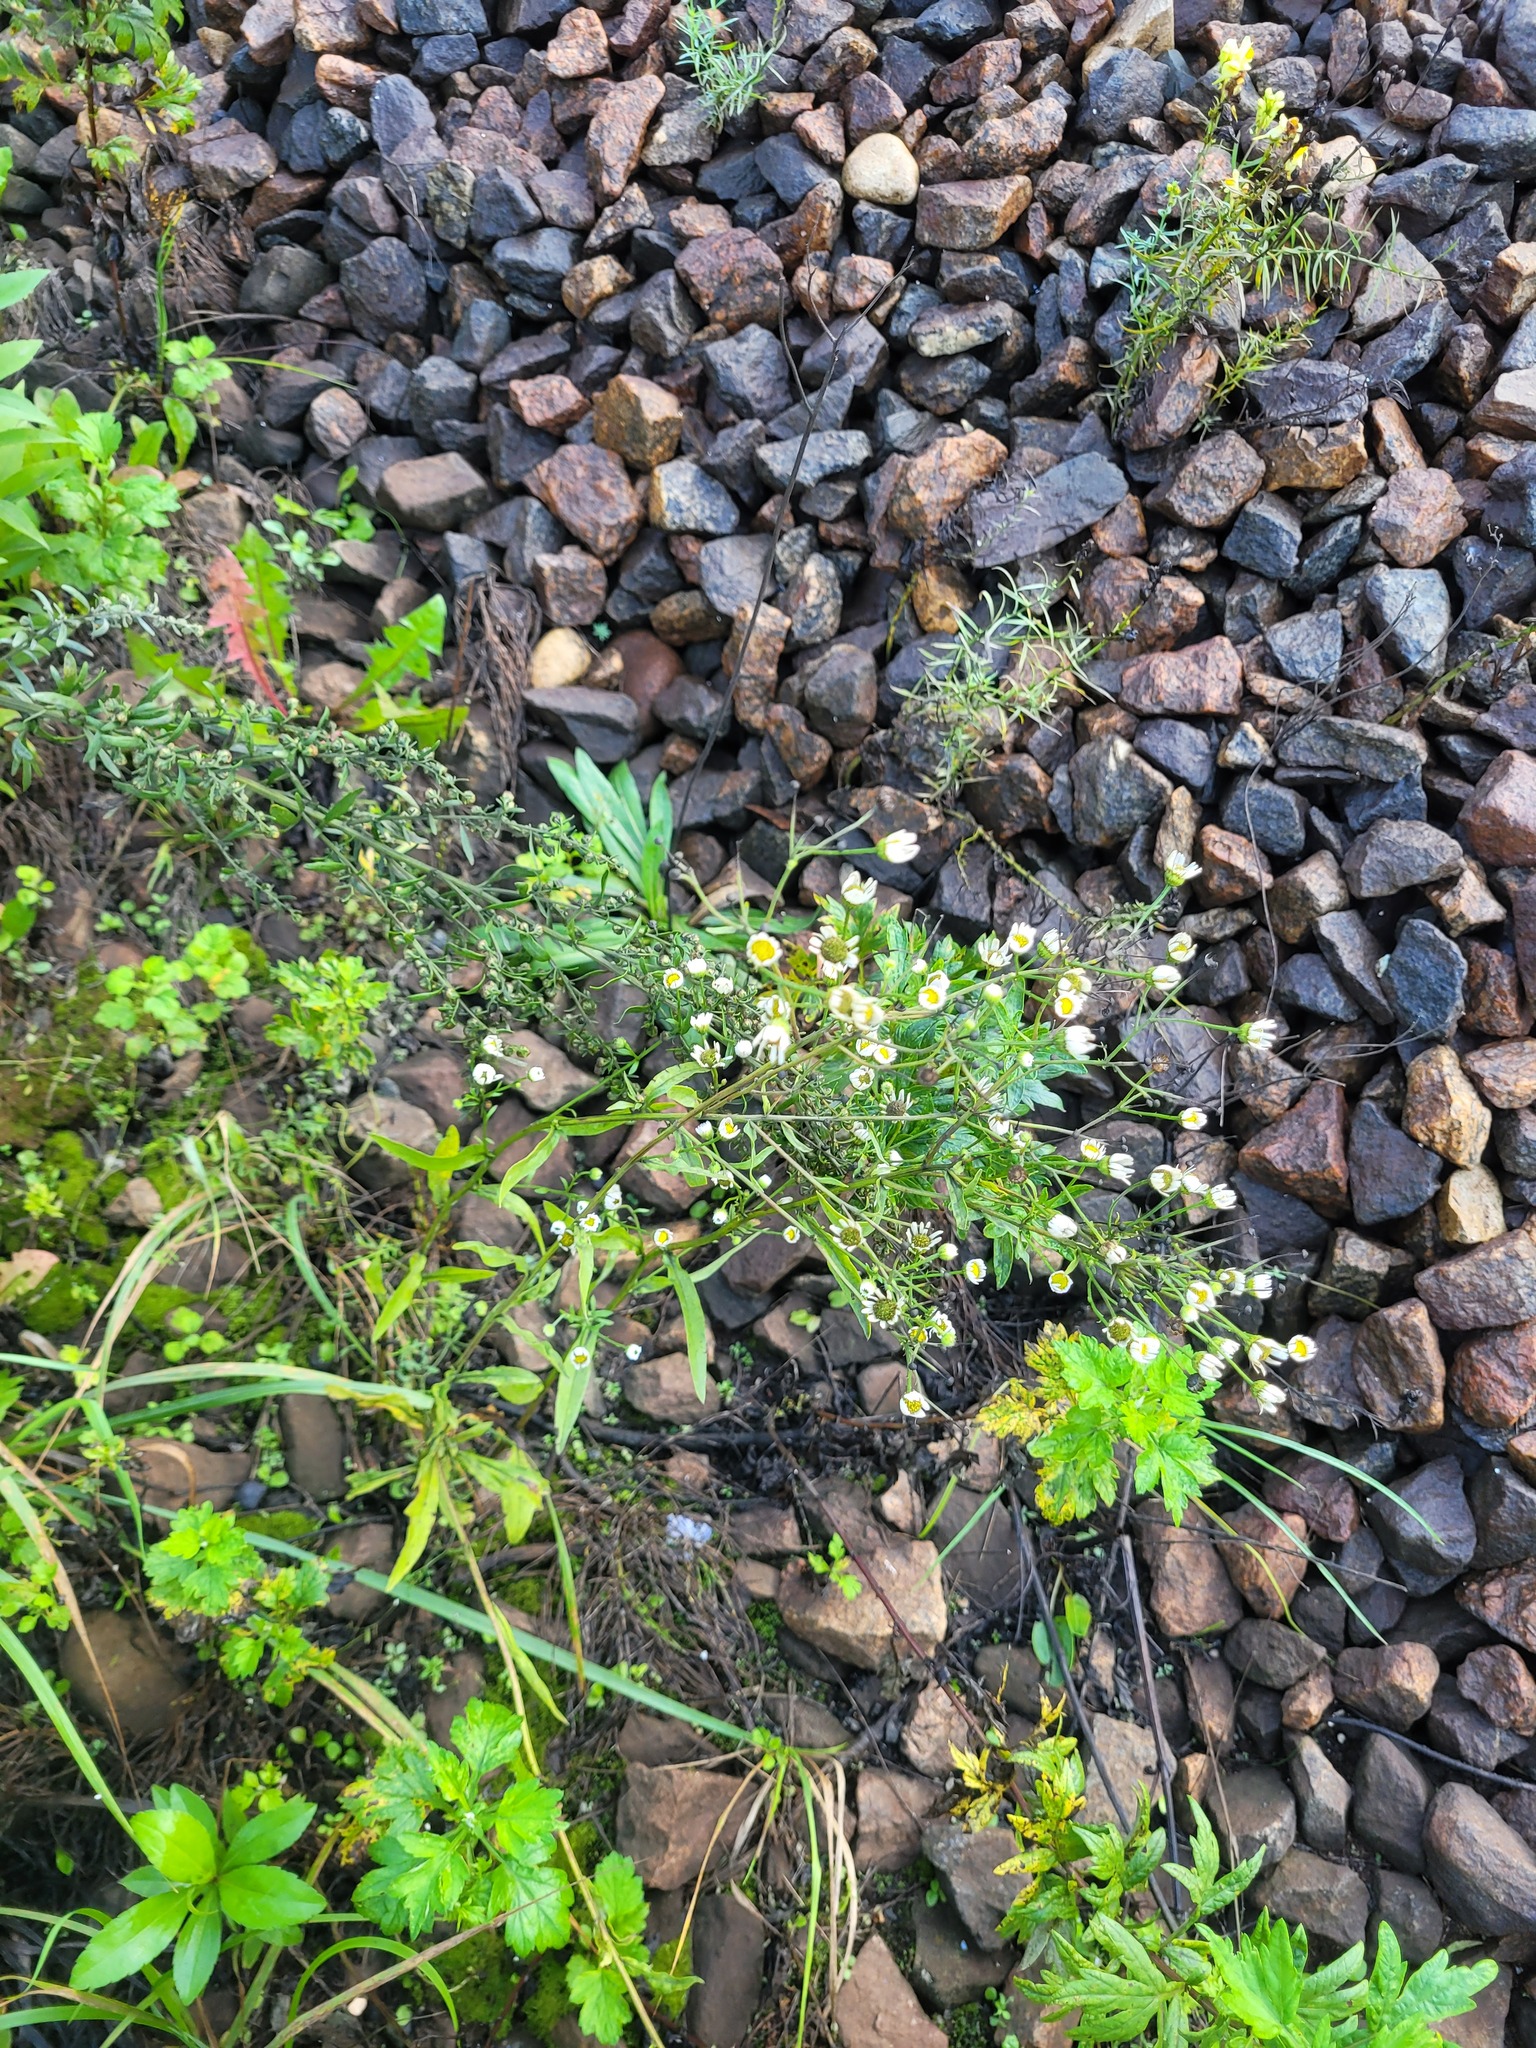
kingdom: Plantae
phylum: Tracheophyta
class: Magnoliopsida
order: Asterales
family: Asteraceae
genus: Erigeron
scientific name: Erigeron annuus
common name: Tall fleabane
